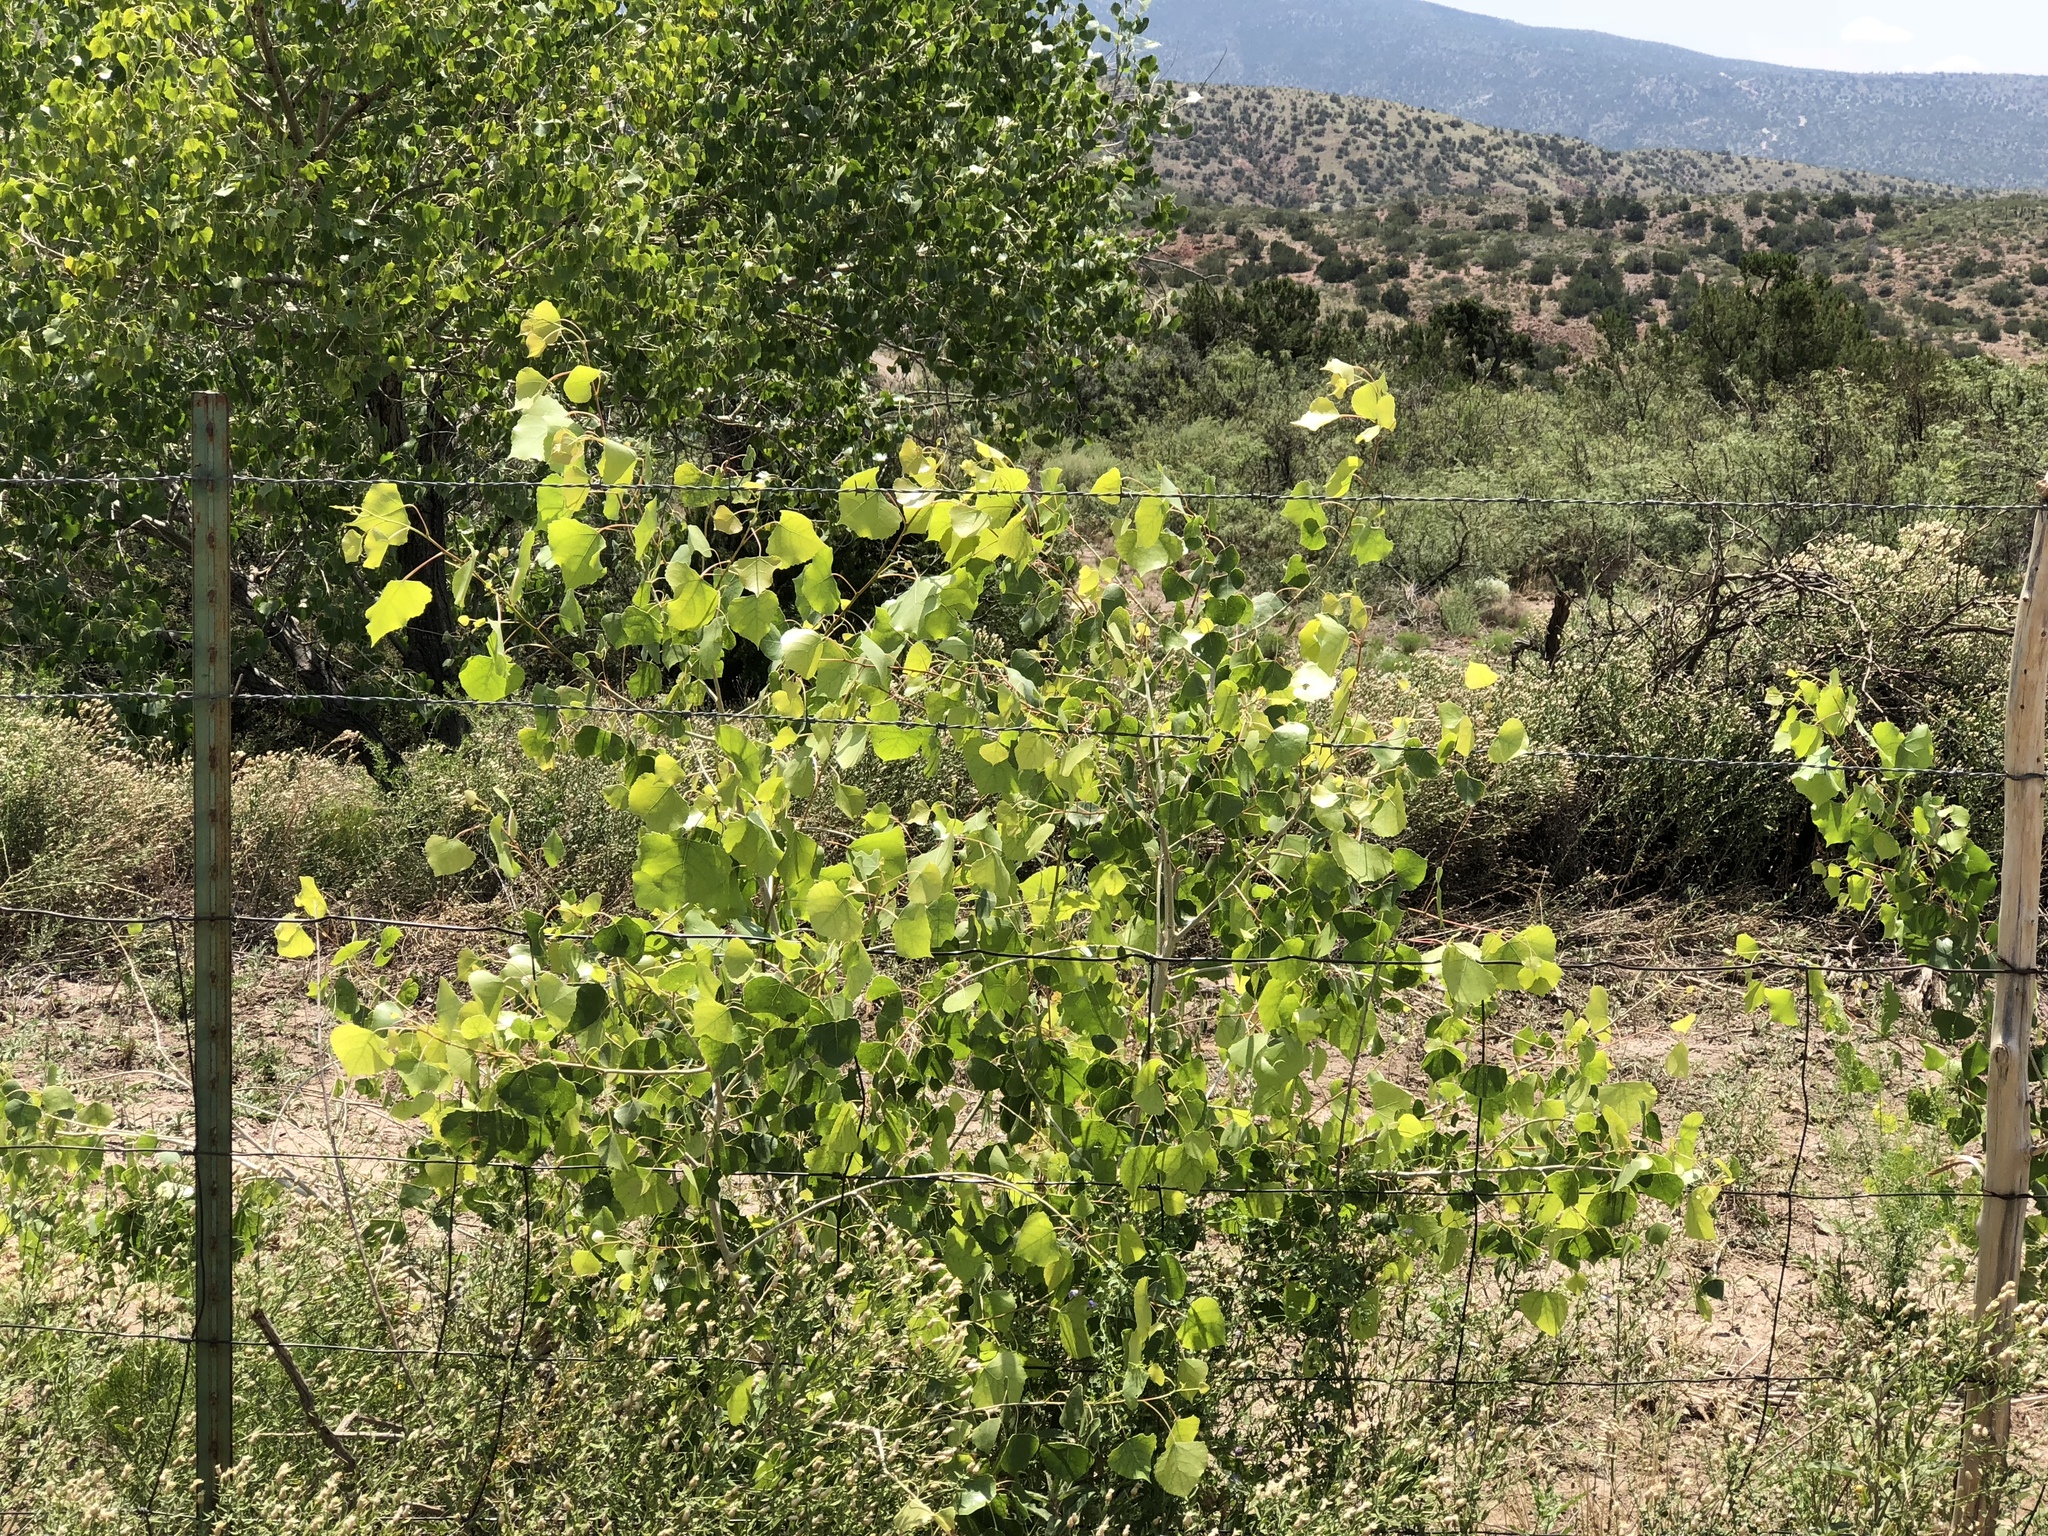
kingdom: Plantae
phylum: Tracheophyta
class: Magnoliopsida
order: Malpighiales
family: Salicaceae
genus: Populus
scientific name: Populus fremontii
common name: Fremont's cottonwood
